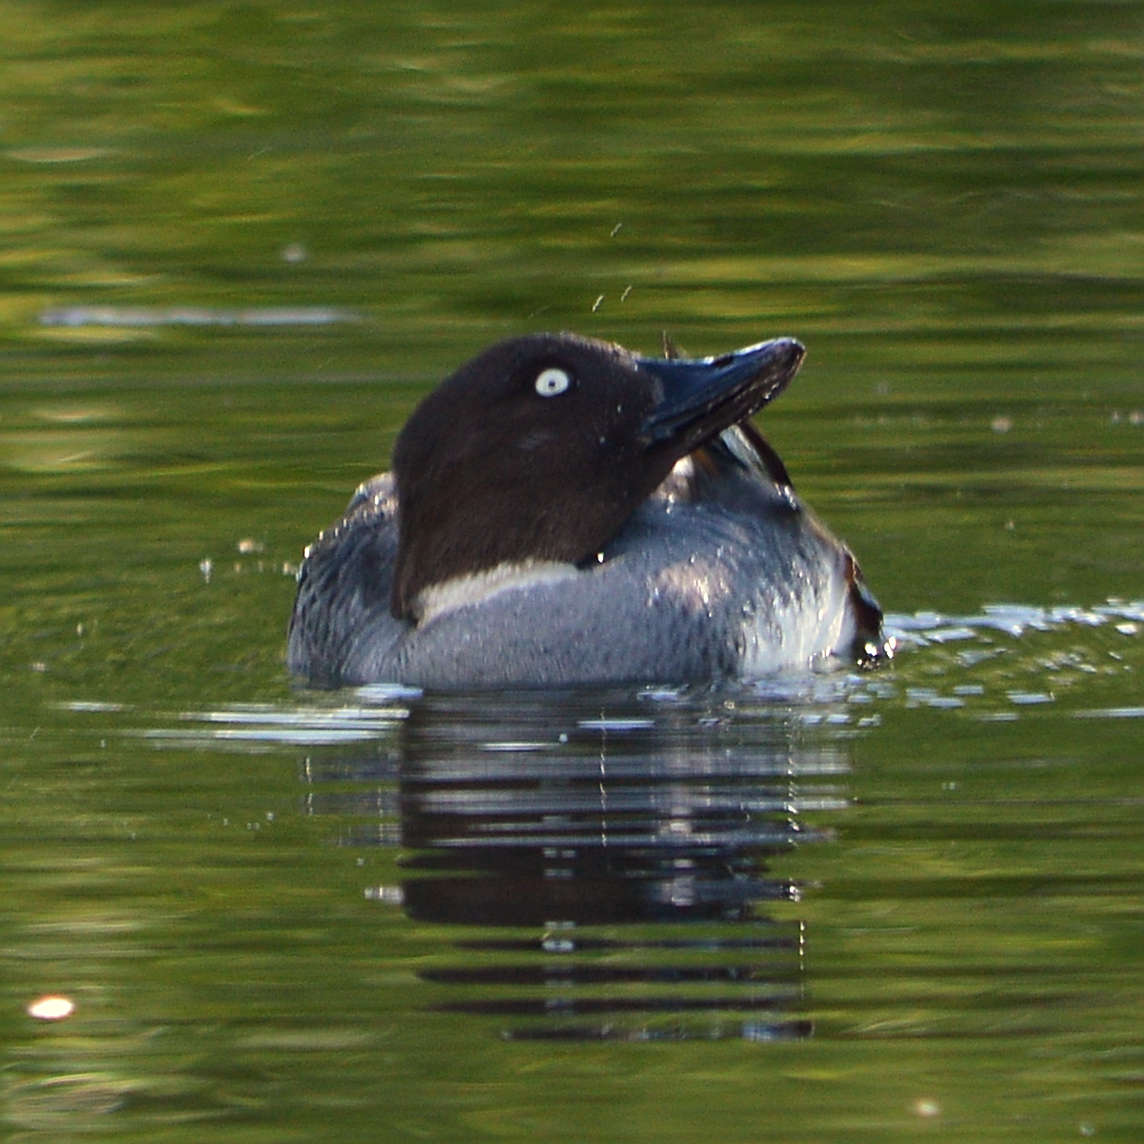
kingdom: Animalia
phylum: Chordata
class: Aves
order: Anseriformes
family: Anatidae
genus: Bucephala
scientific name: Bucephala clangula
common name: Common goldeneye
